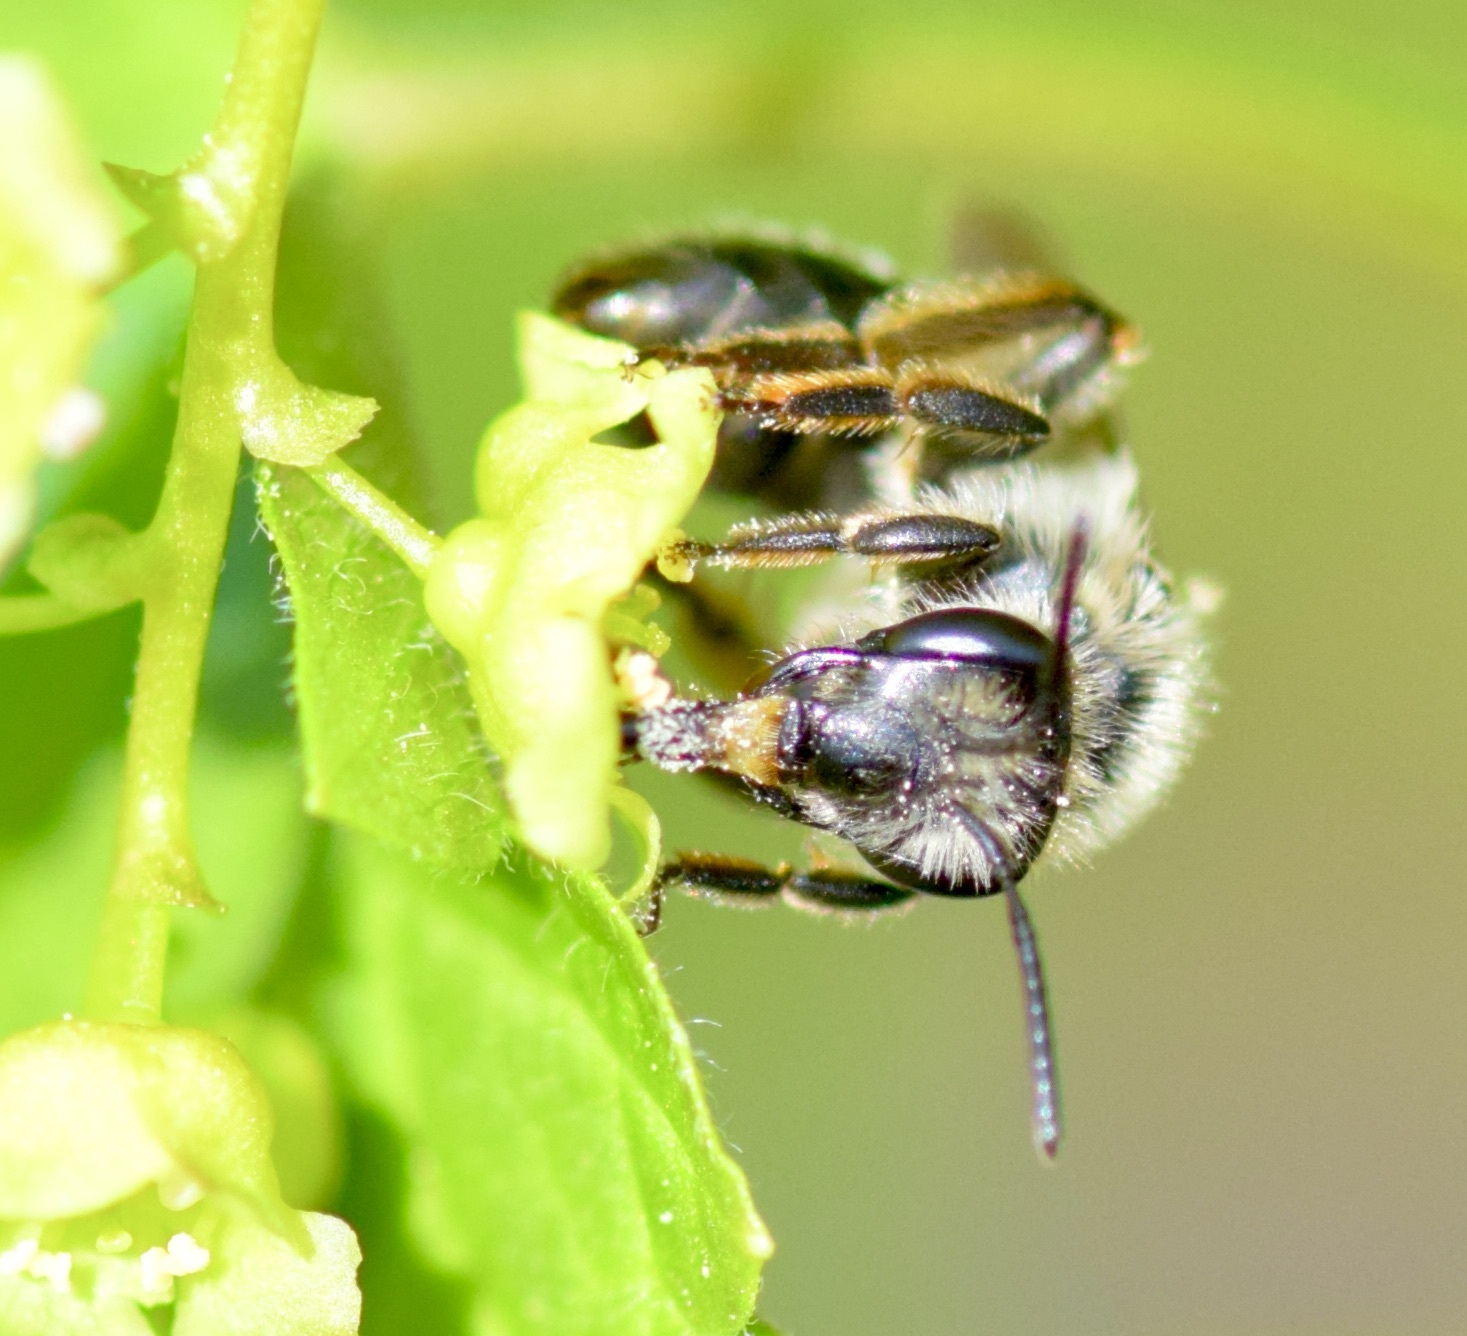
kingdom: Animalia
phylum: Arthropoda
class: Insecta
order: Hymenoptera
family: Andrenidae
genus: Andrena
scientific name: Andrena rufosignata
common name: Brown-fovea miner
